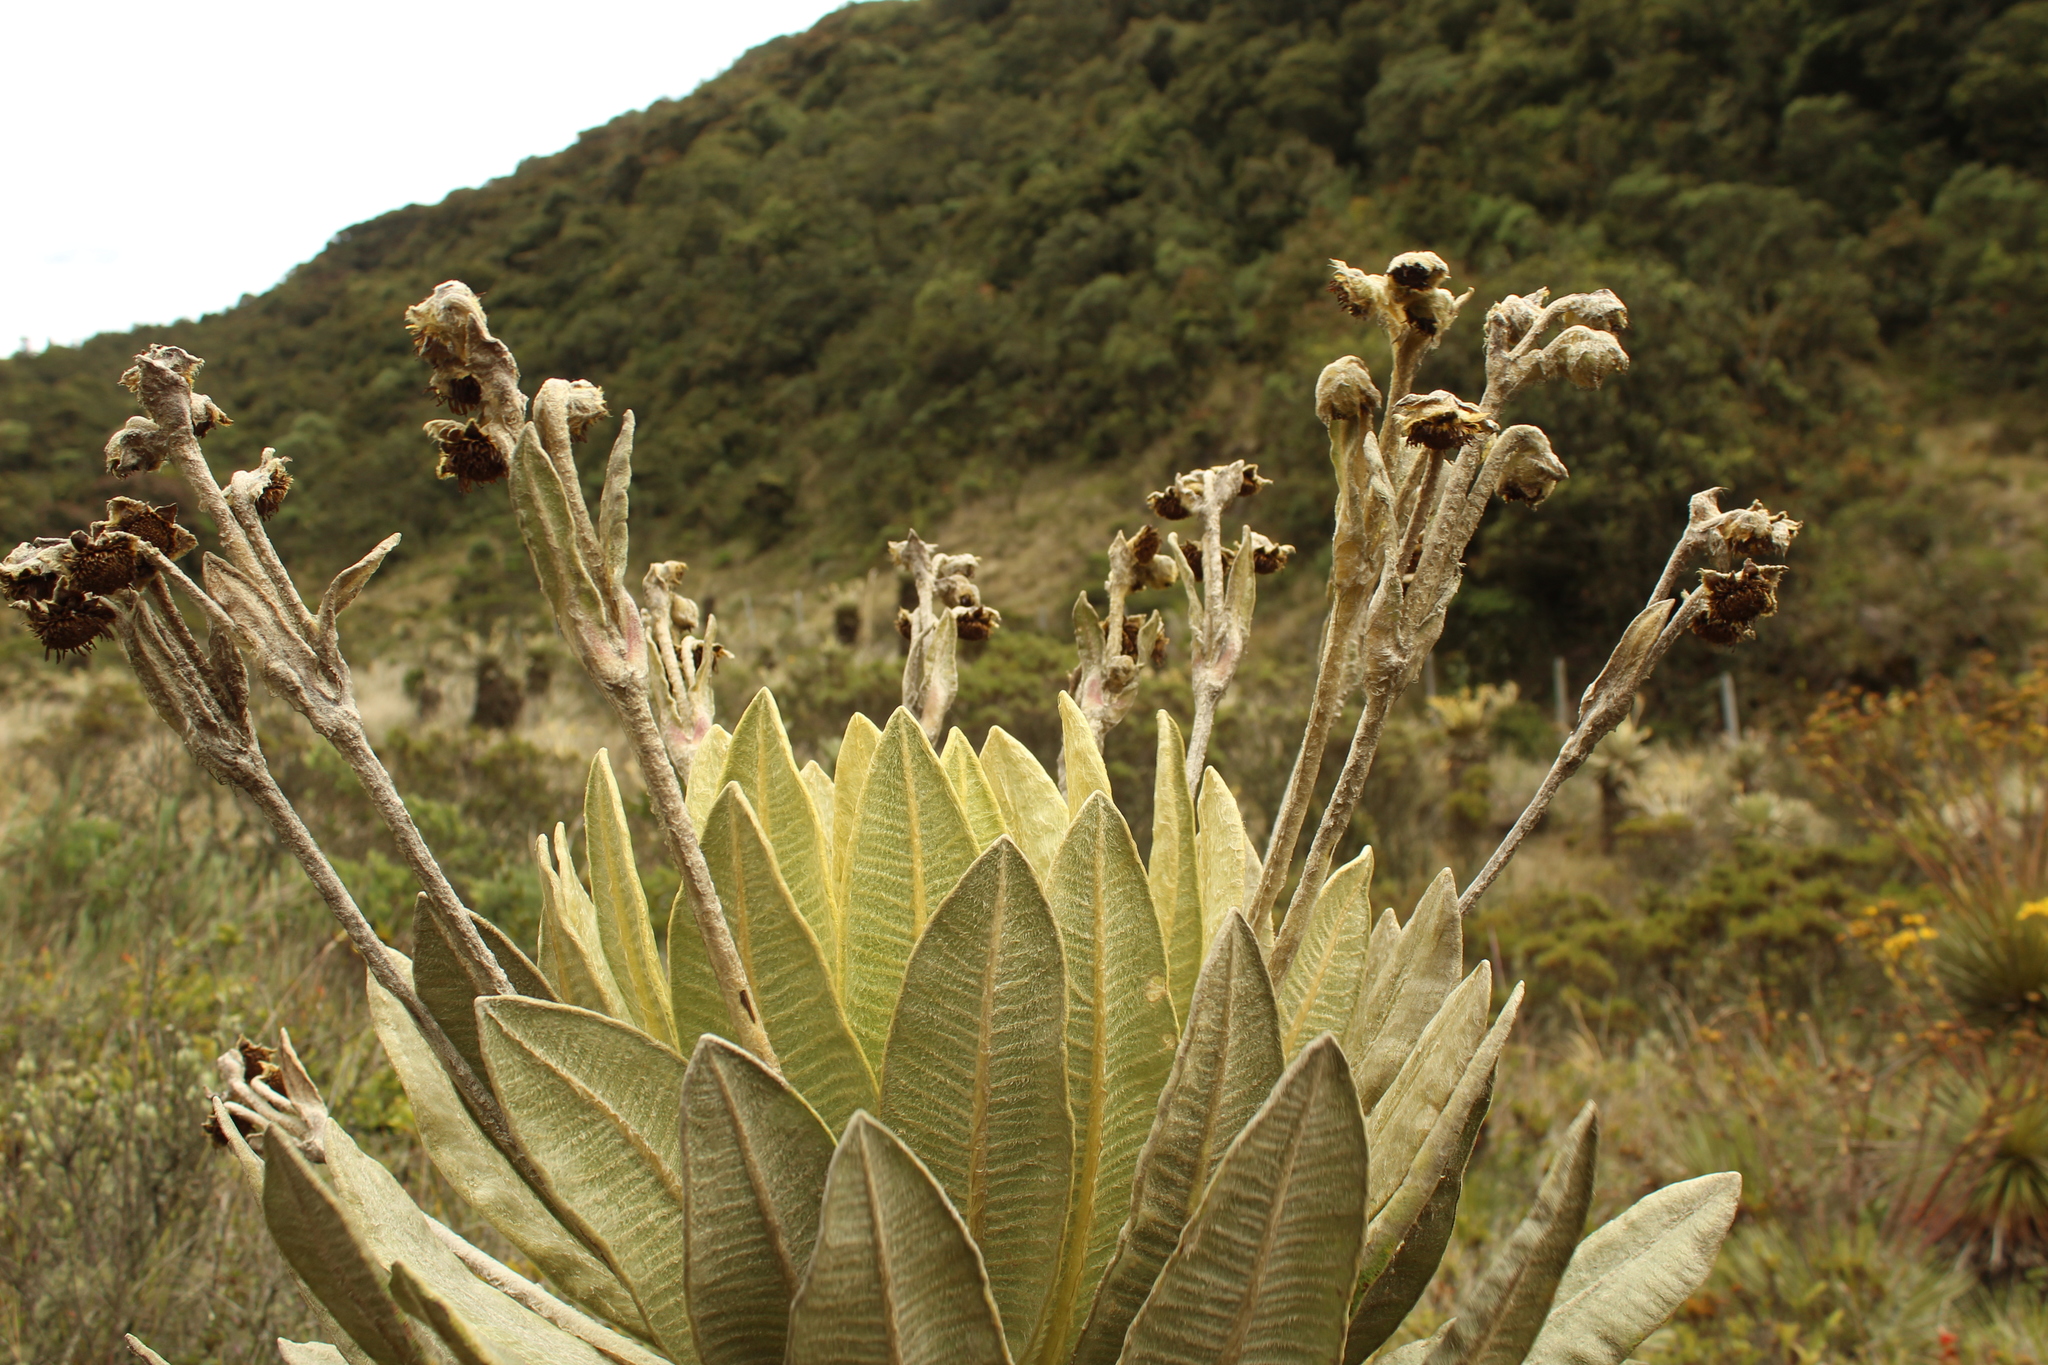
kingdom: Plantae
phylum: Tracheophyta
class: Magnoliopsida
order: Asterales
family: Asteraceae
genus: Espeletia
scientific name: Espeletia barclayana
